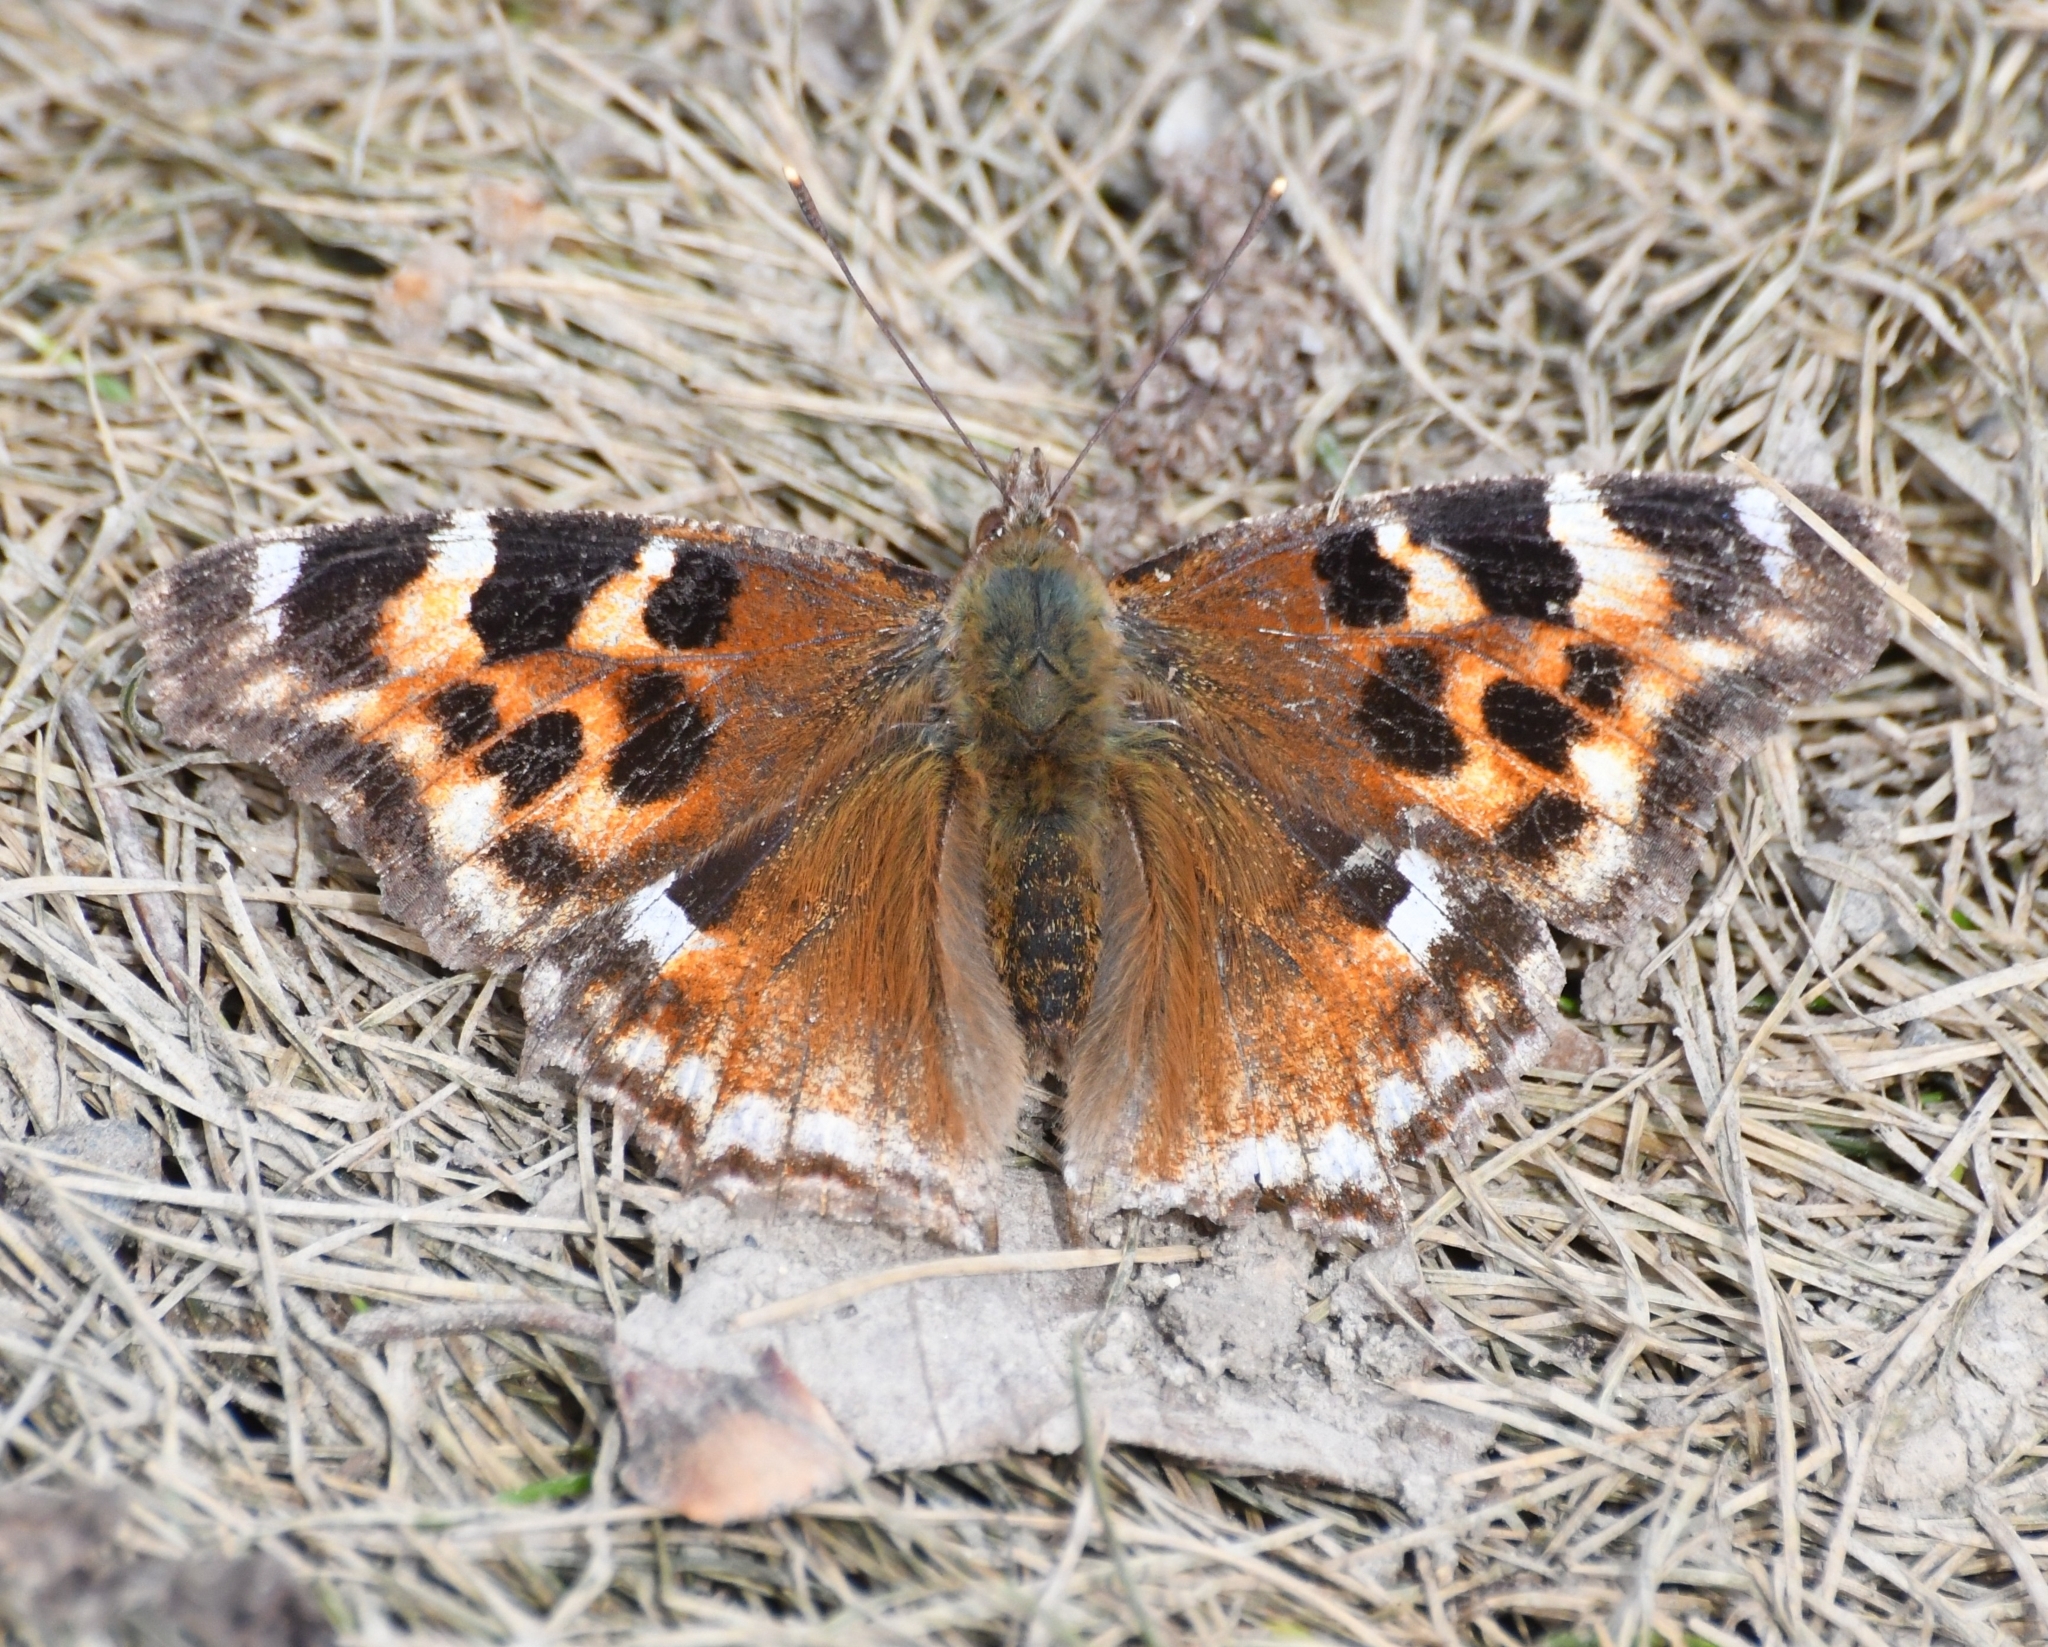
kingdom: Animalia
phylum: Arthropoda
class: Insecta
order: Lepidoptera
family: Nymphalidae
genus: Polygonia
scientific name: Polygonia vaualbum
